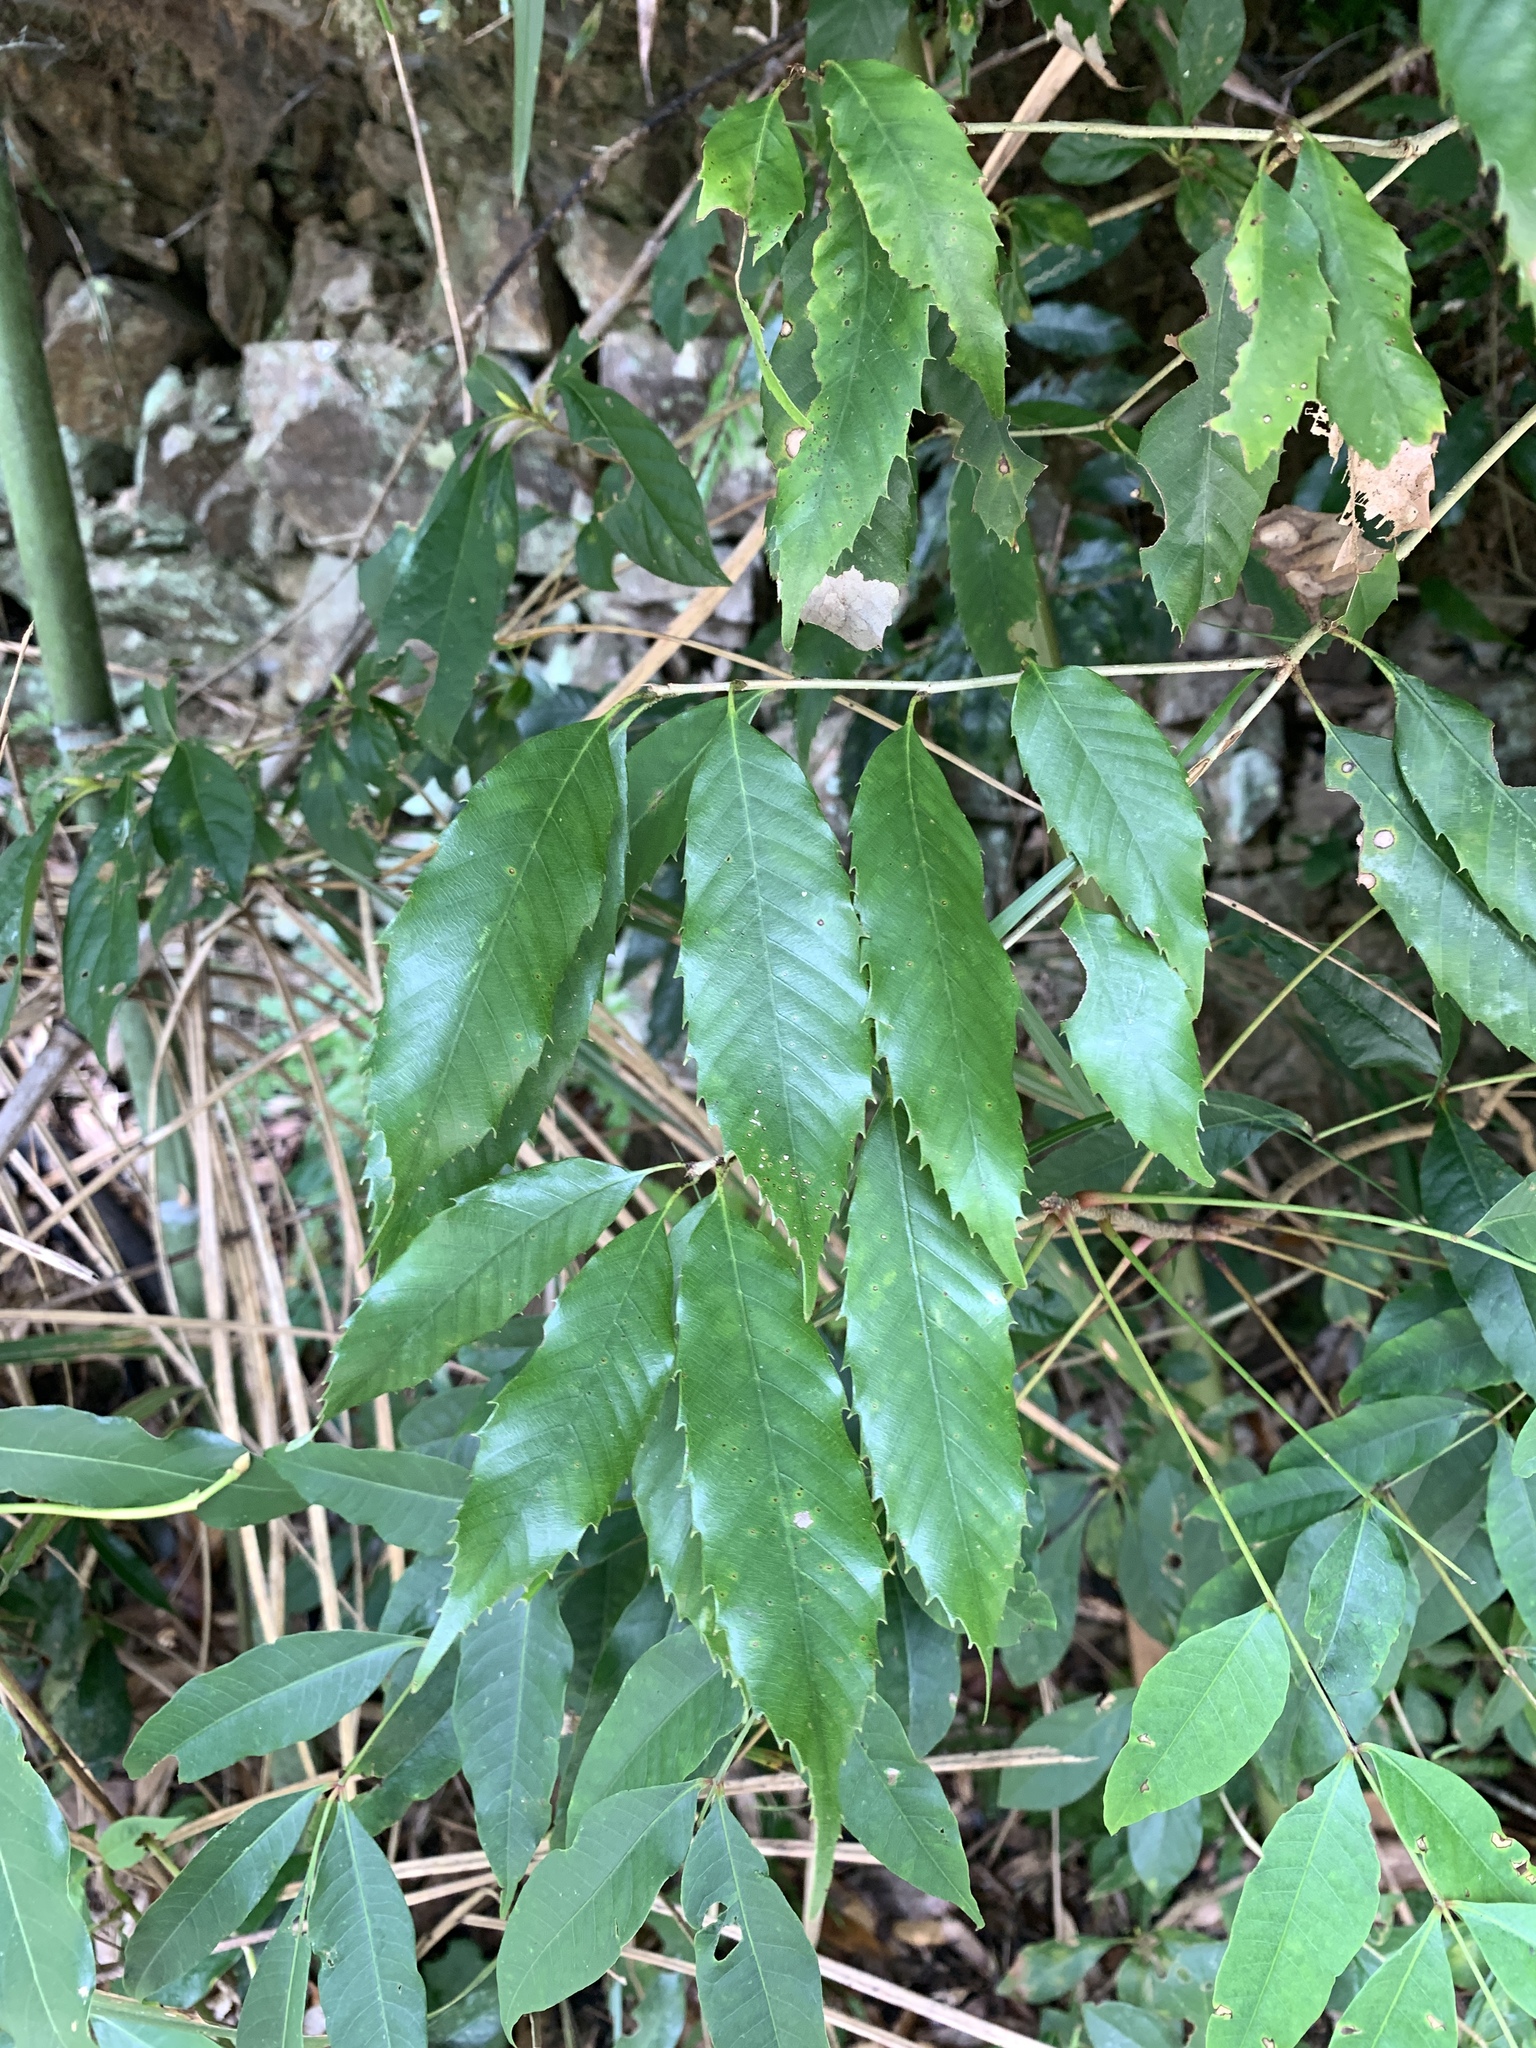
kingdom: Plantae
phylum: Tracheophyta
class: Magnoliopsida
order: Fagales
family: Fagaceae
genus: Quercus
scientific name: Quercus stenophylloides
